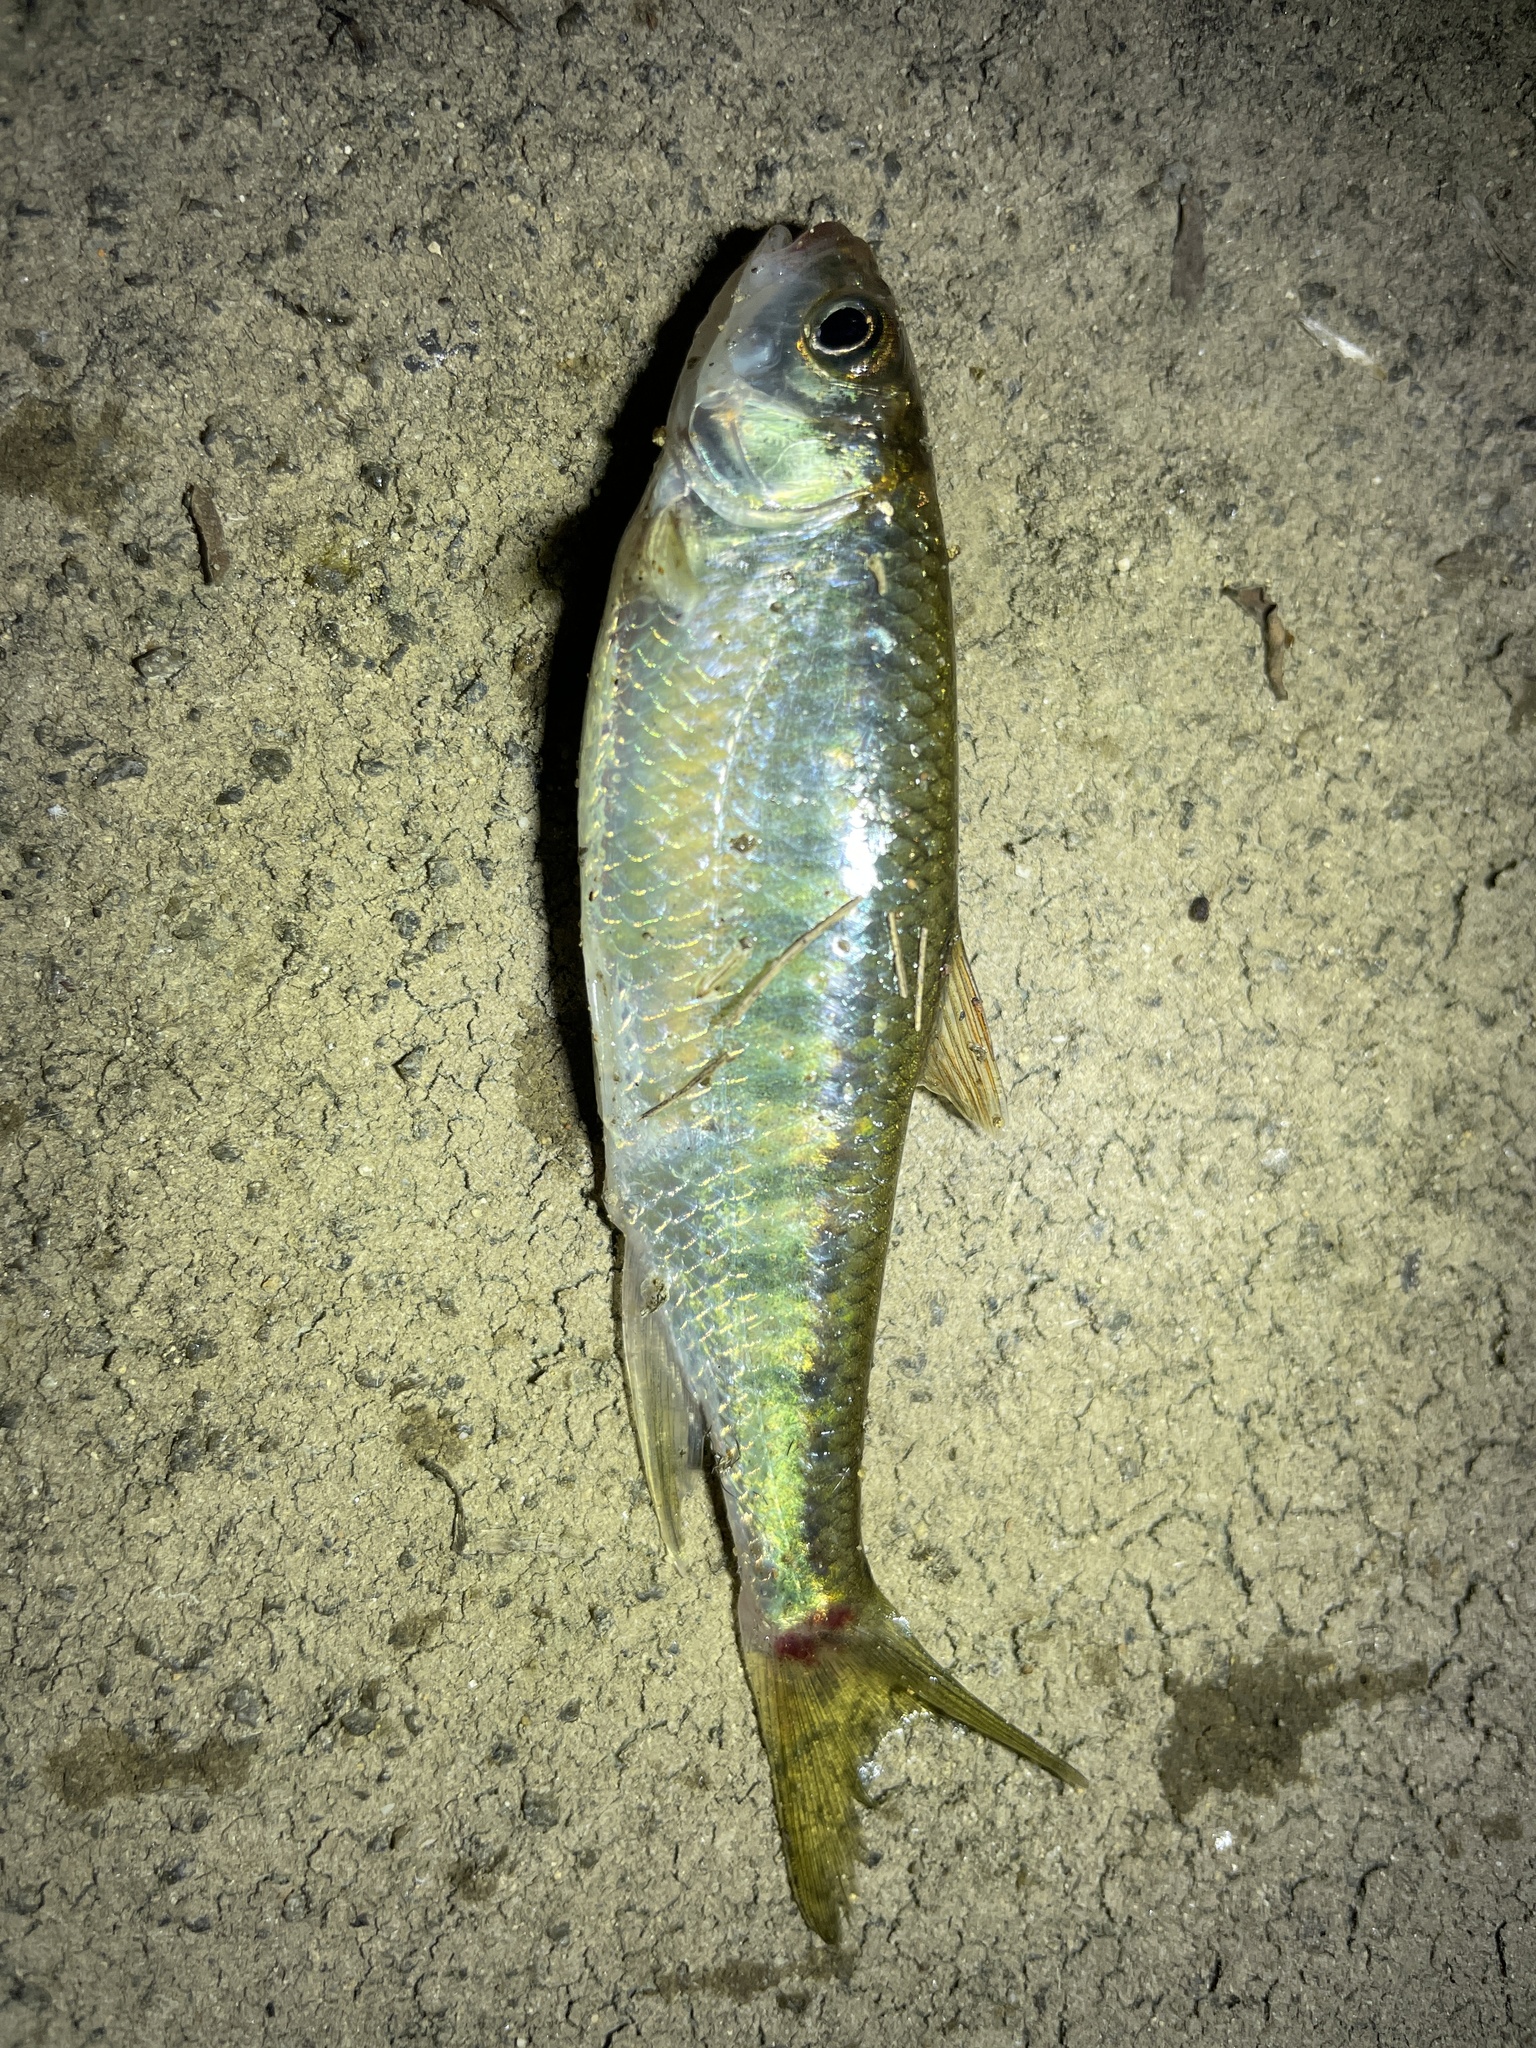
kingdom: Animalia
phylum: Chordata
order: Cypriniformes
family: Cyprinidae
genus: Opsariichthys
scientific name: Opsariichthys evolans
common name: Freshwater minnow
